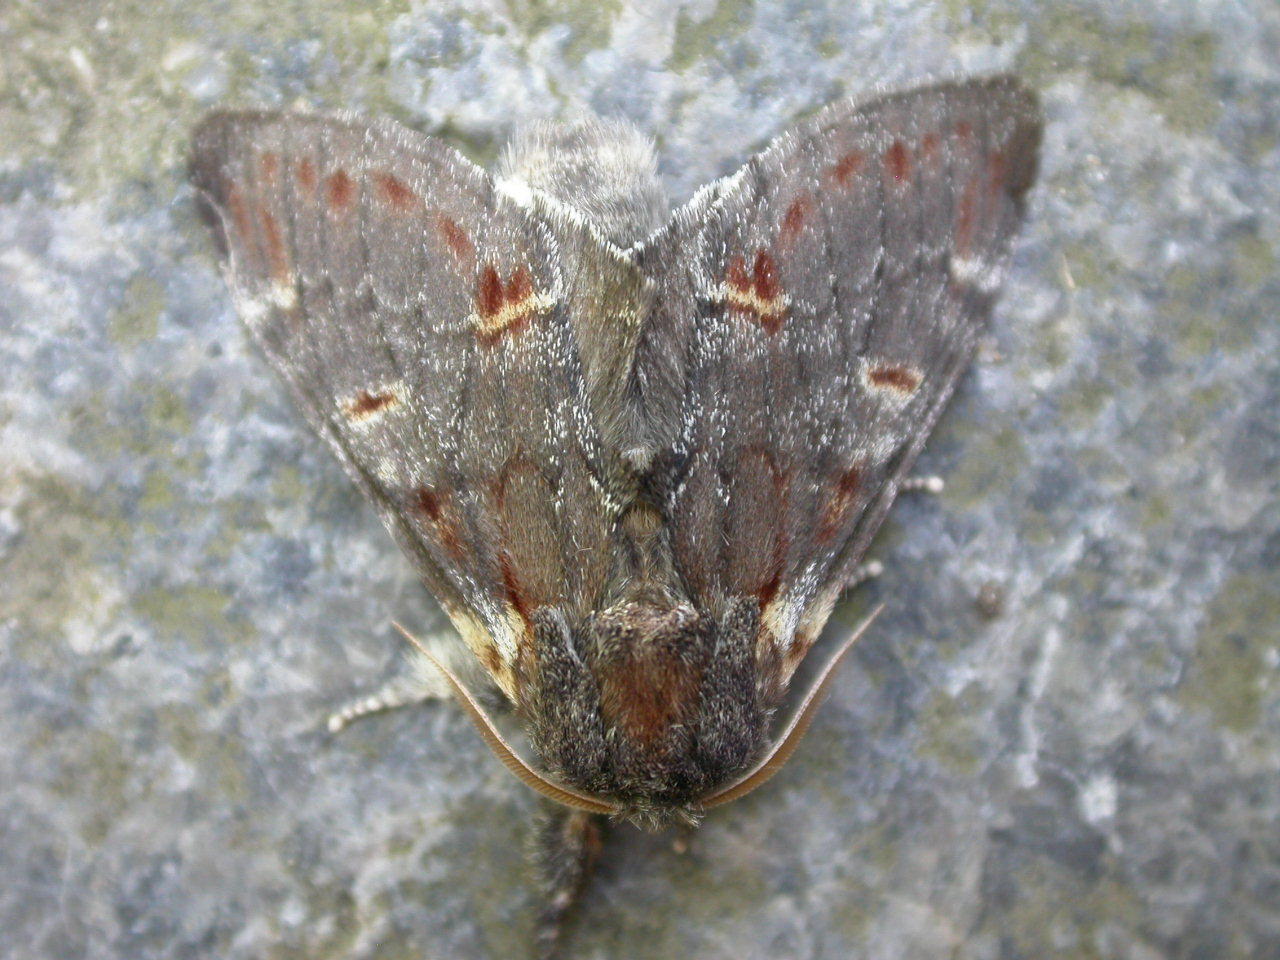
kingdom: Animalia
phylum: Arthropoda
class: Insecta
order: Lepidoptera
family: Notodontidae
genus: Notodonta
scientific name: Notodonta dromedarius
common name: Iron prominent
